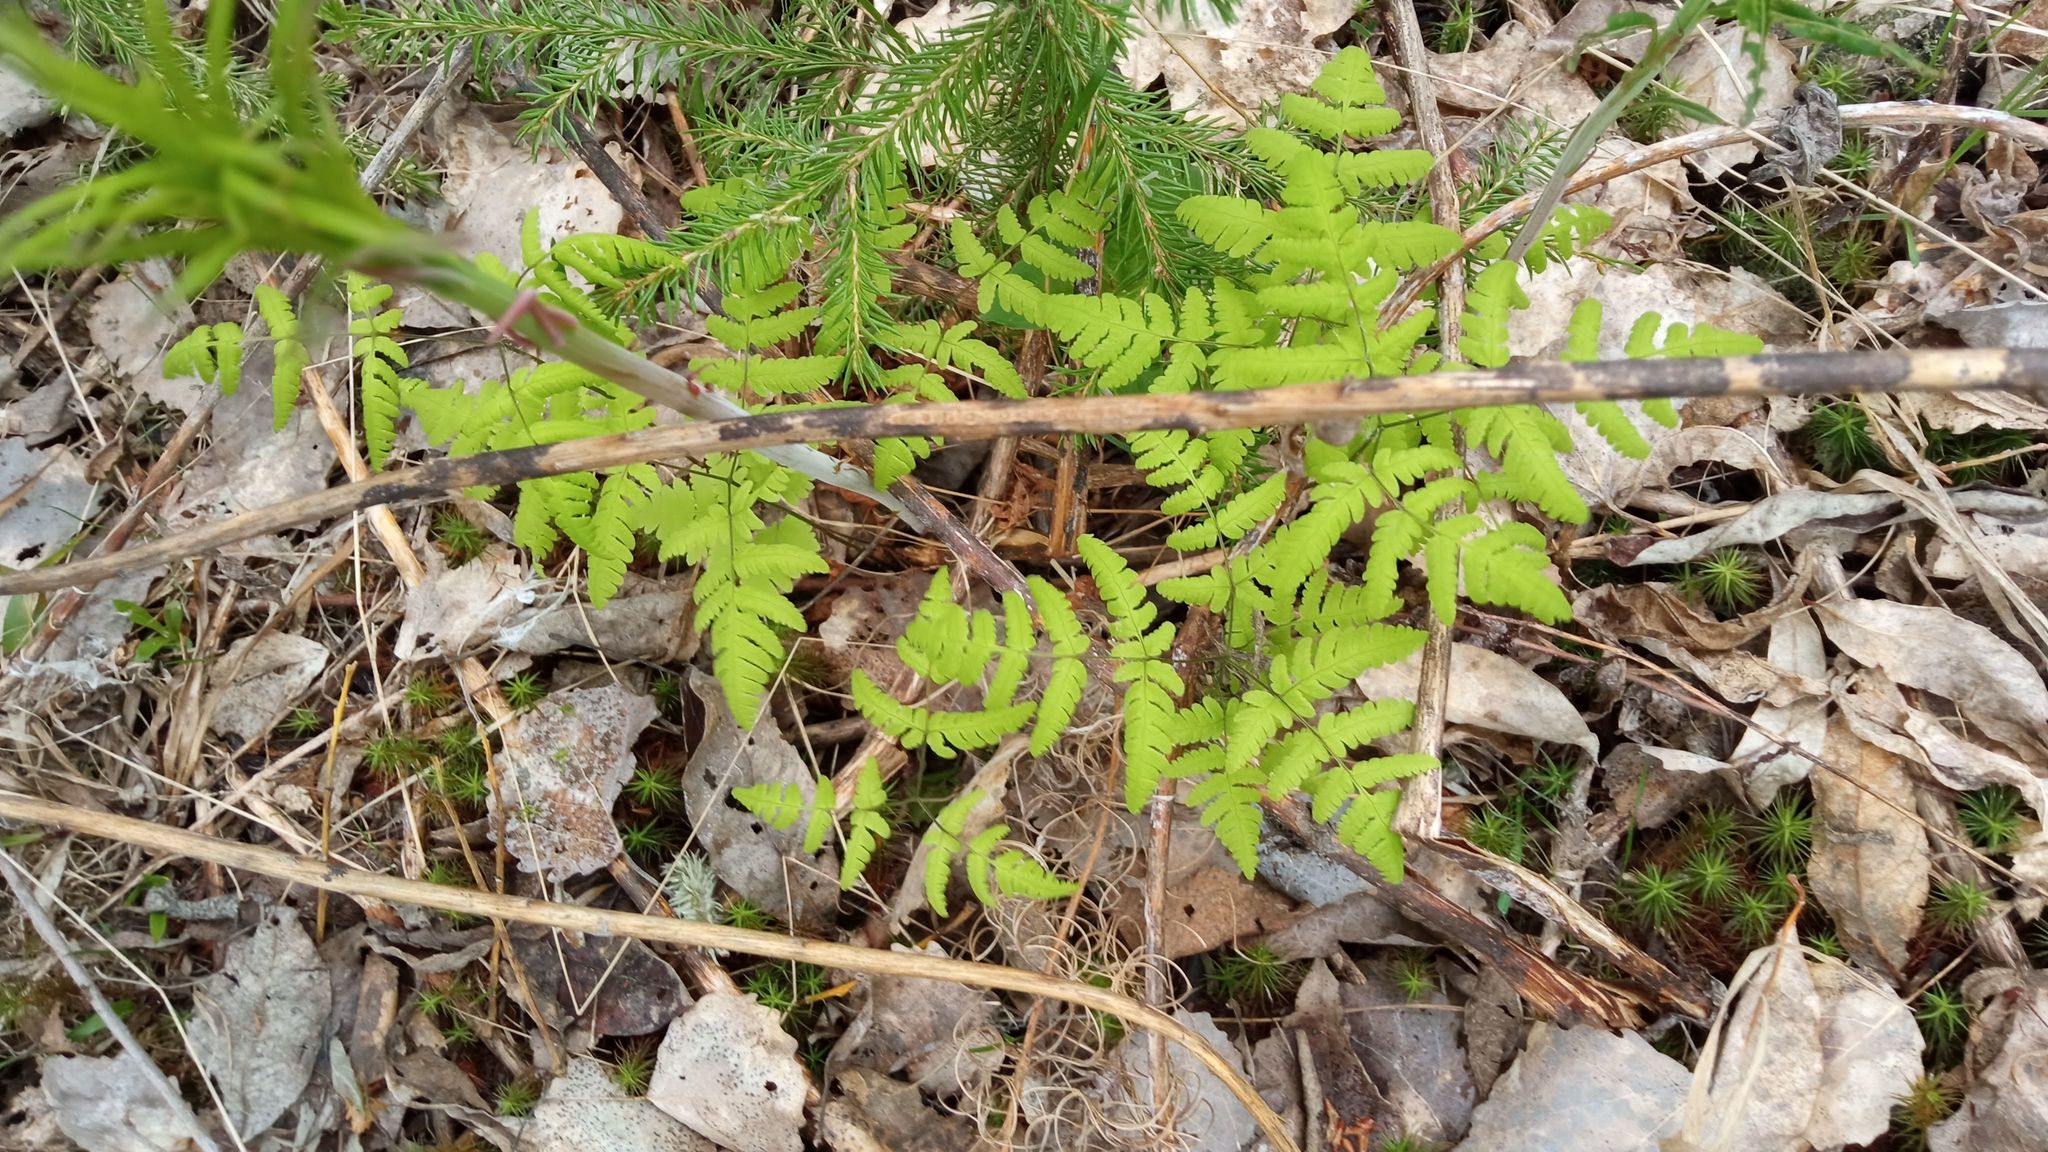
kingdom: Plantae
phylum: Tracheophyta
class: Polypodiopsida
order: Polypodiales
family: Cystopteridaceae
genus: Gymnocarpium
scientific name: Gymnocarpium dryopteris
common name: Oak fern
